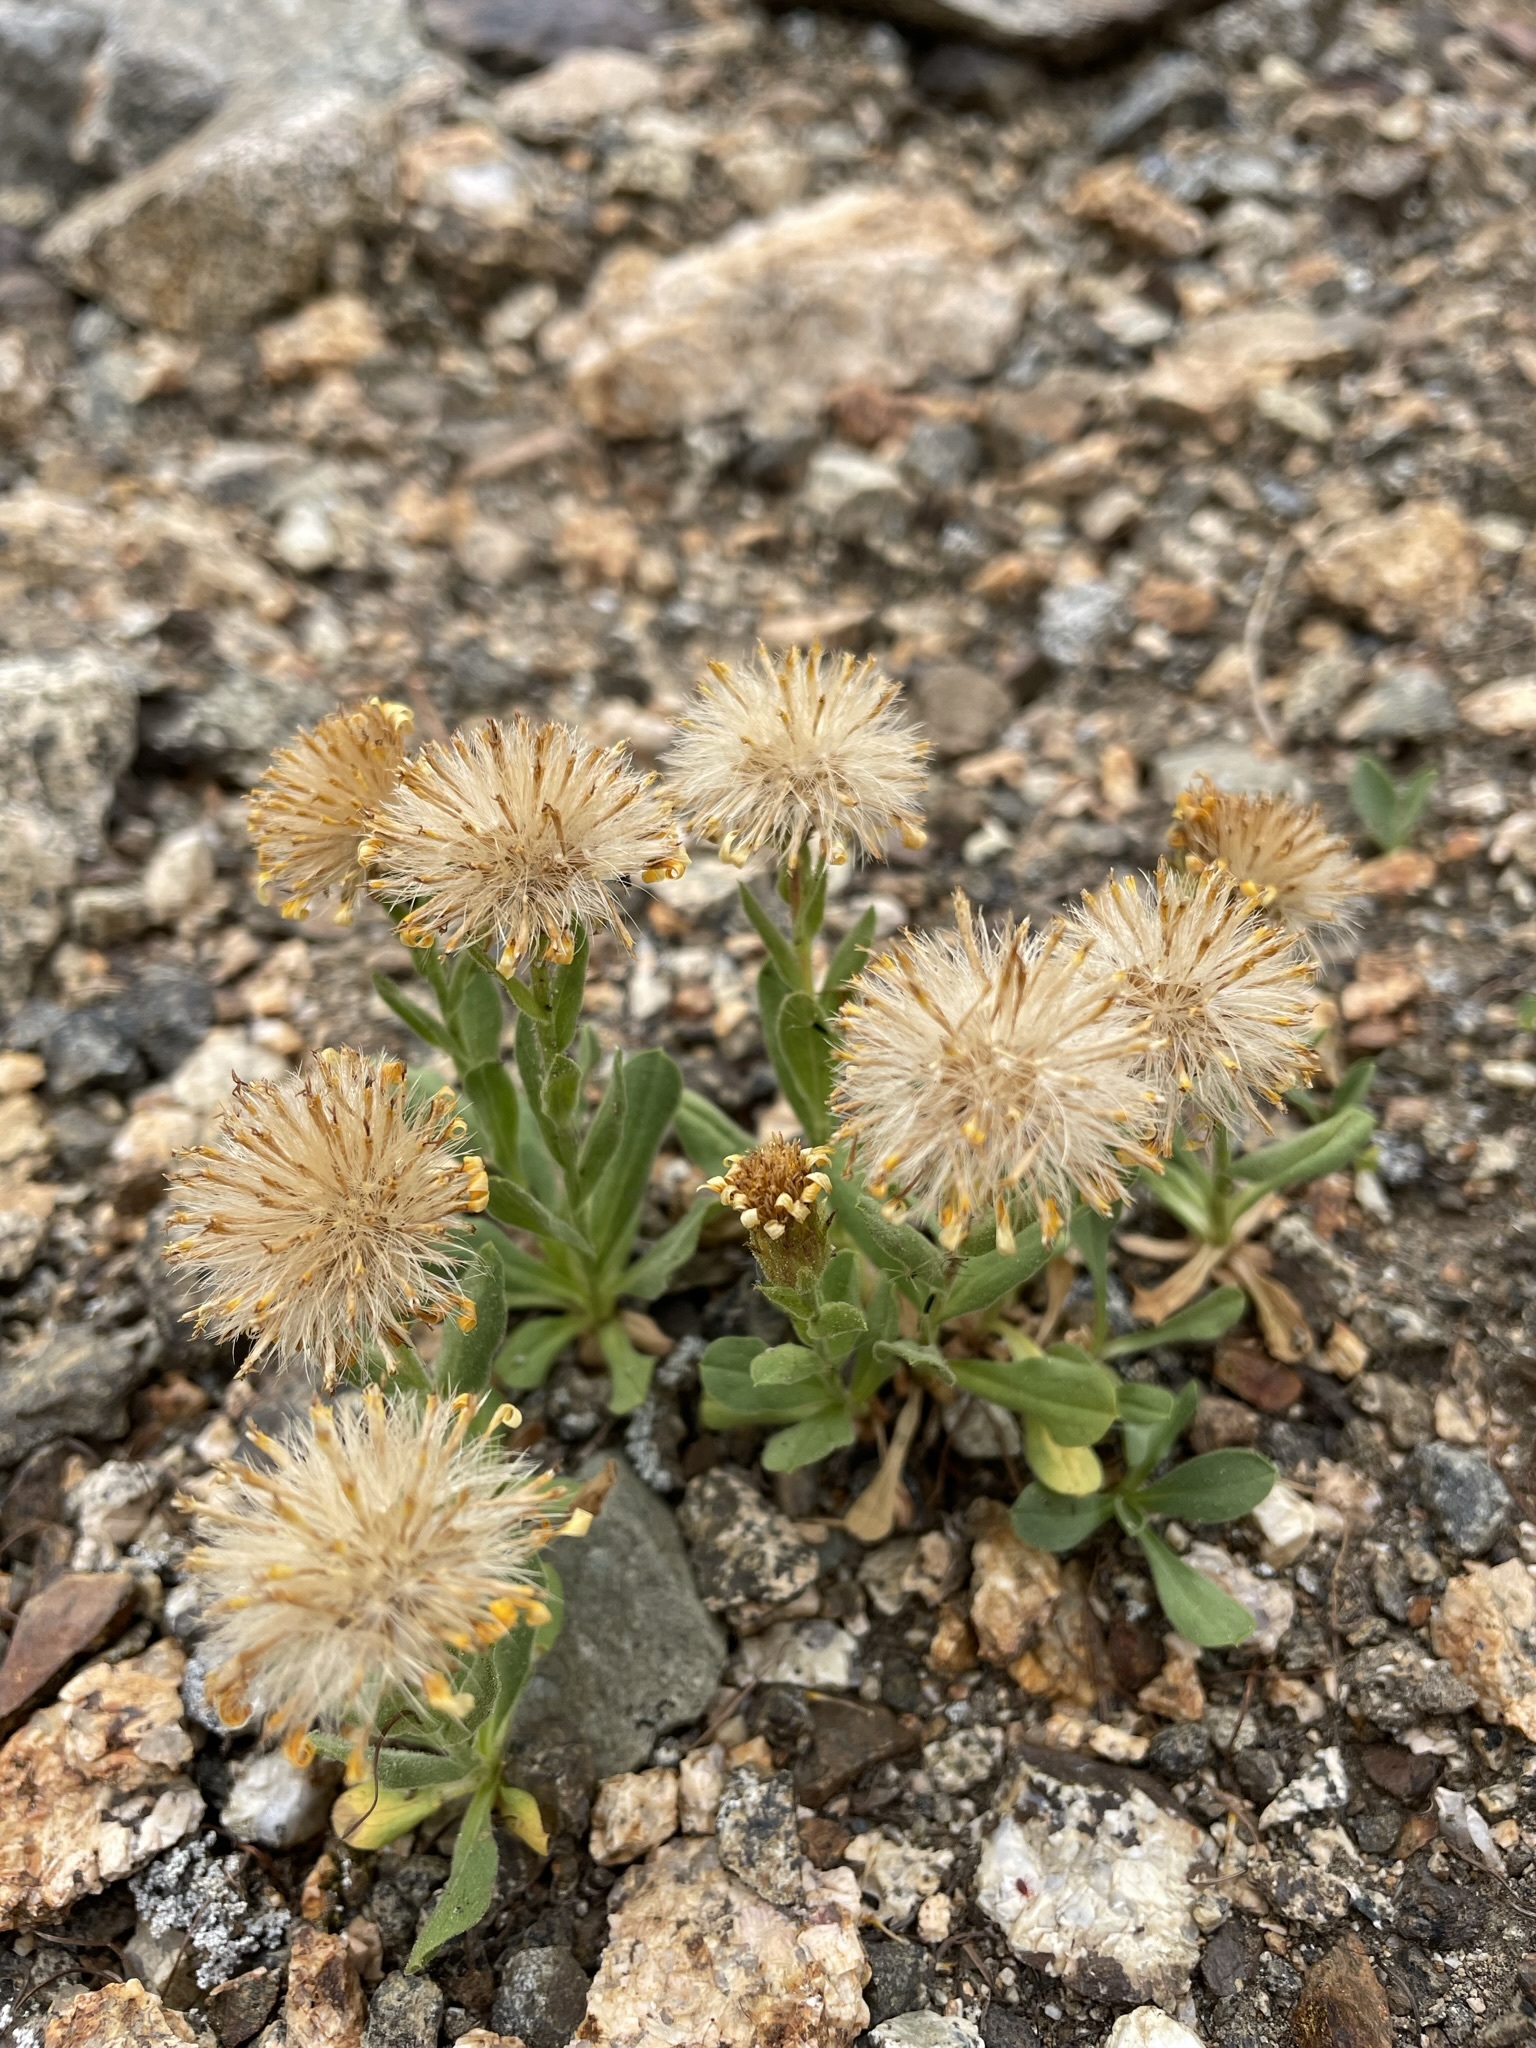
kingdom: Plantae
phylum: Tracheophyta
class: Magnoliopsida
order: Asterales
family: Asteraceae
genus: Tonestus
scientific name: Tonestus lyallii
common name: Lyall's goldenweed
